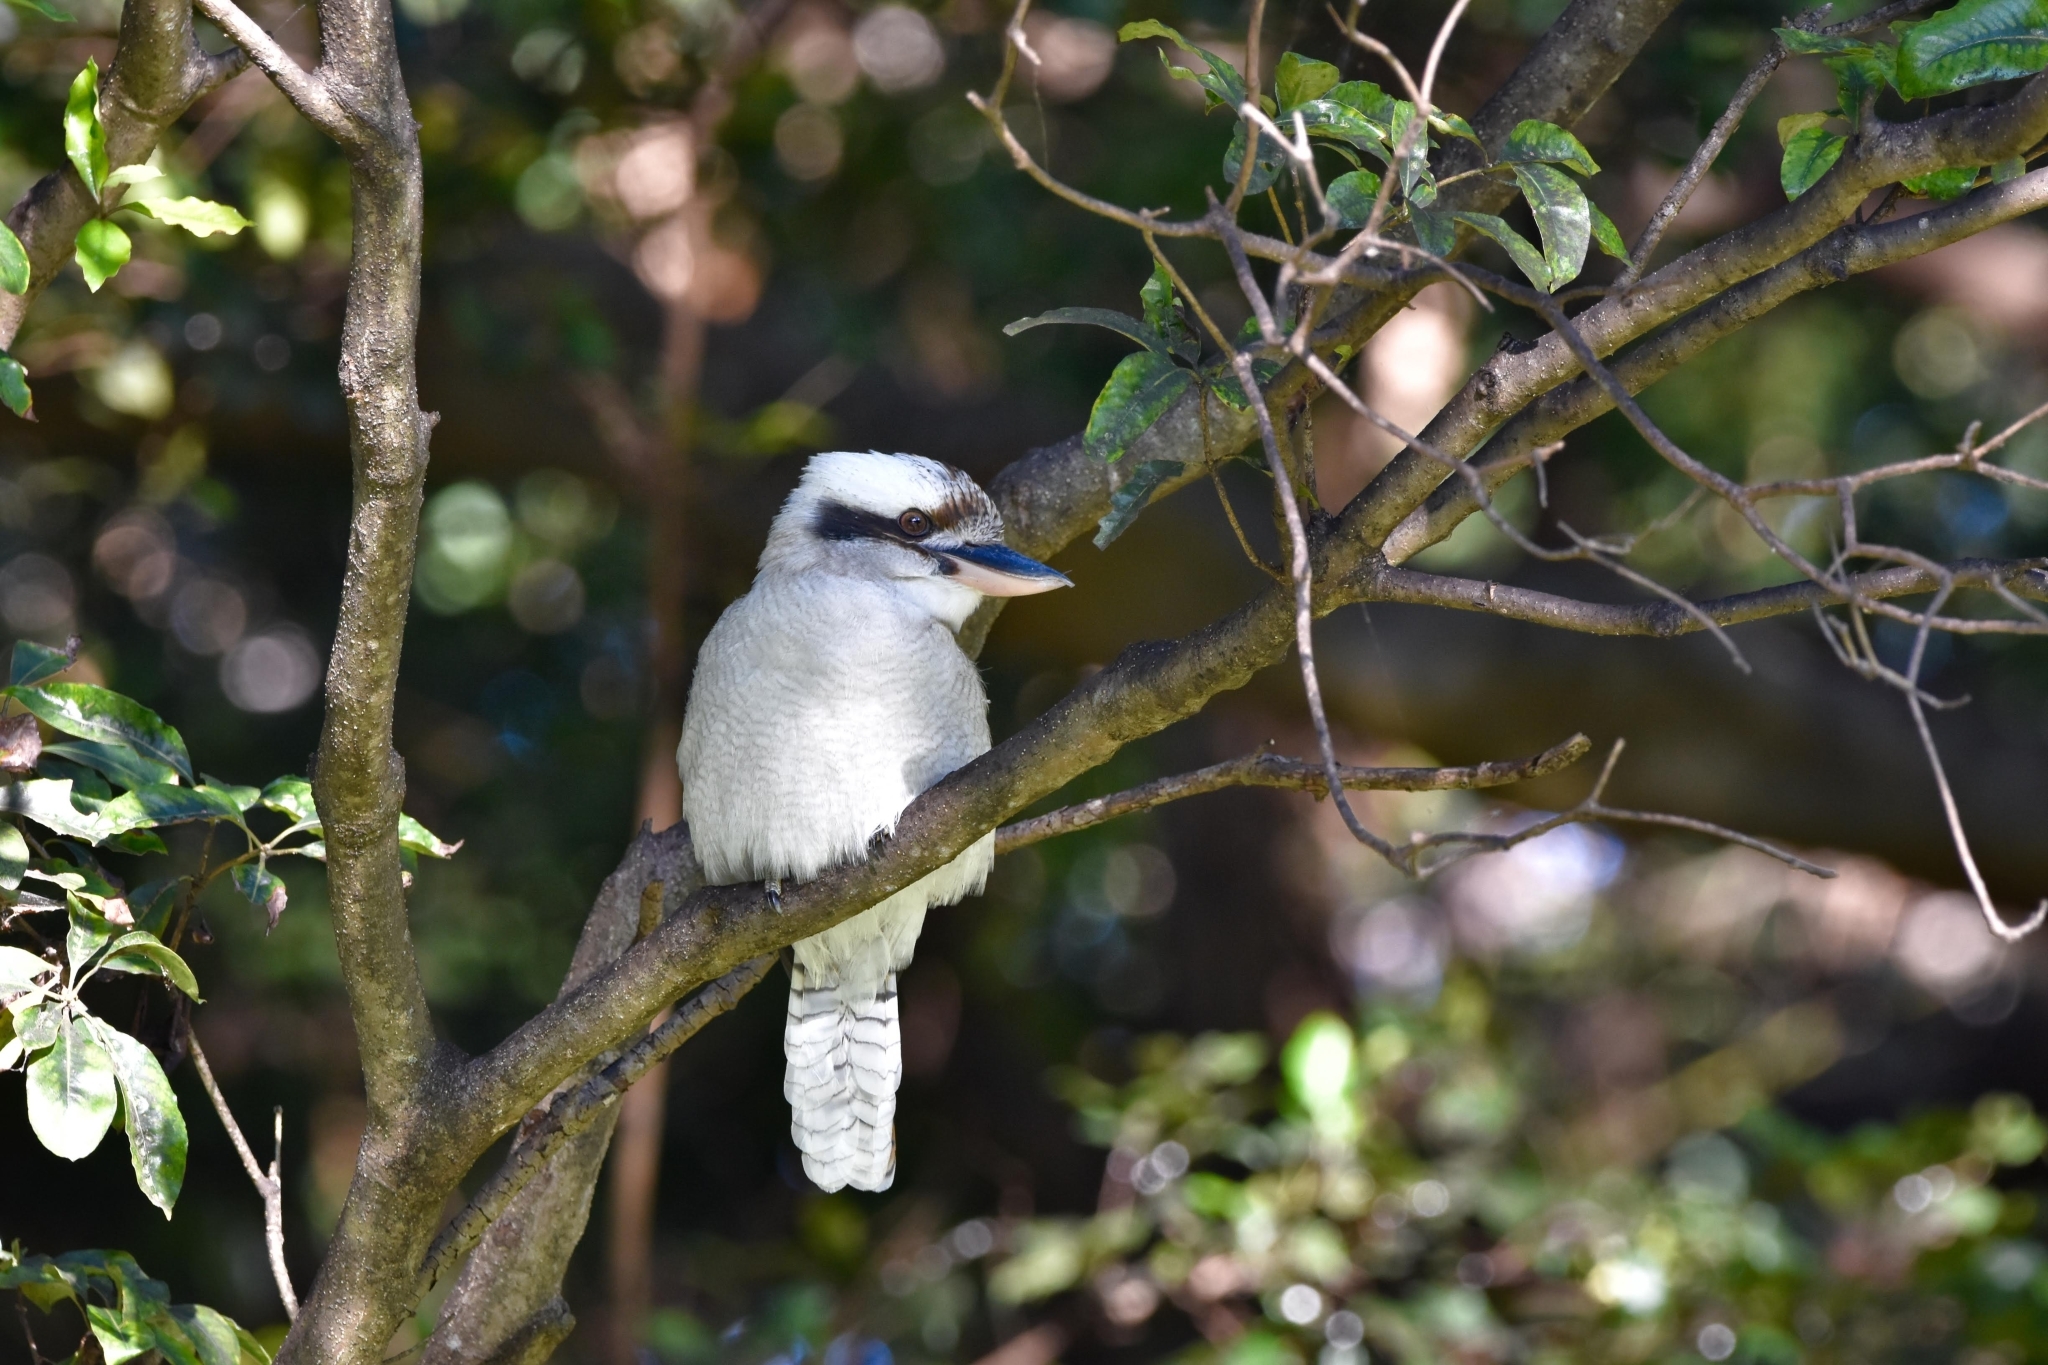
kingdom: Animalia
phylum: Chordata
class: Aves
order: Coraciiformes
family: Alcedinidae
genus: Dacelo
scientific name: Dacelo novaeguineae
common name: Laughing kookaburra
